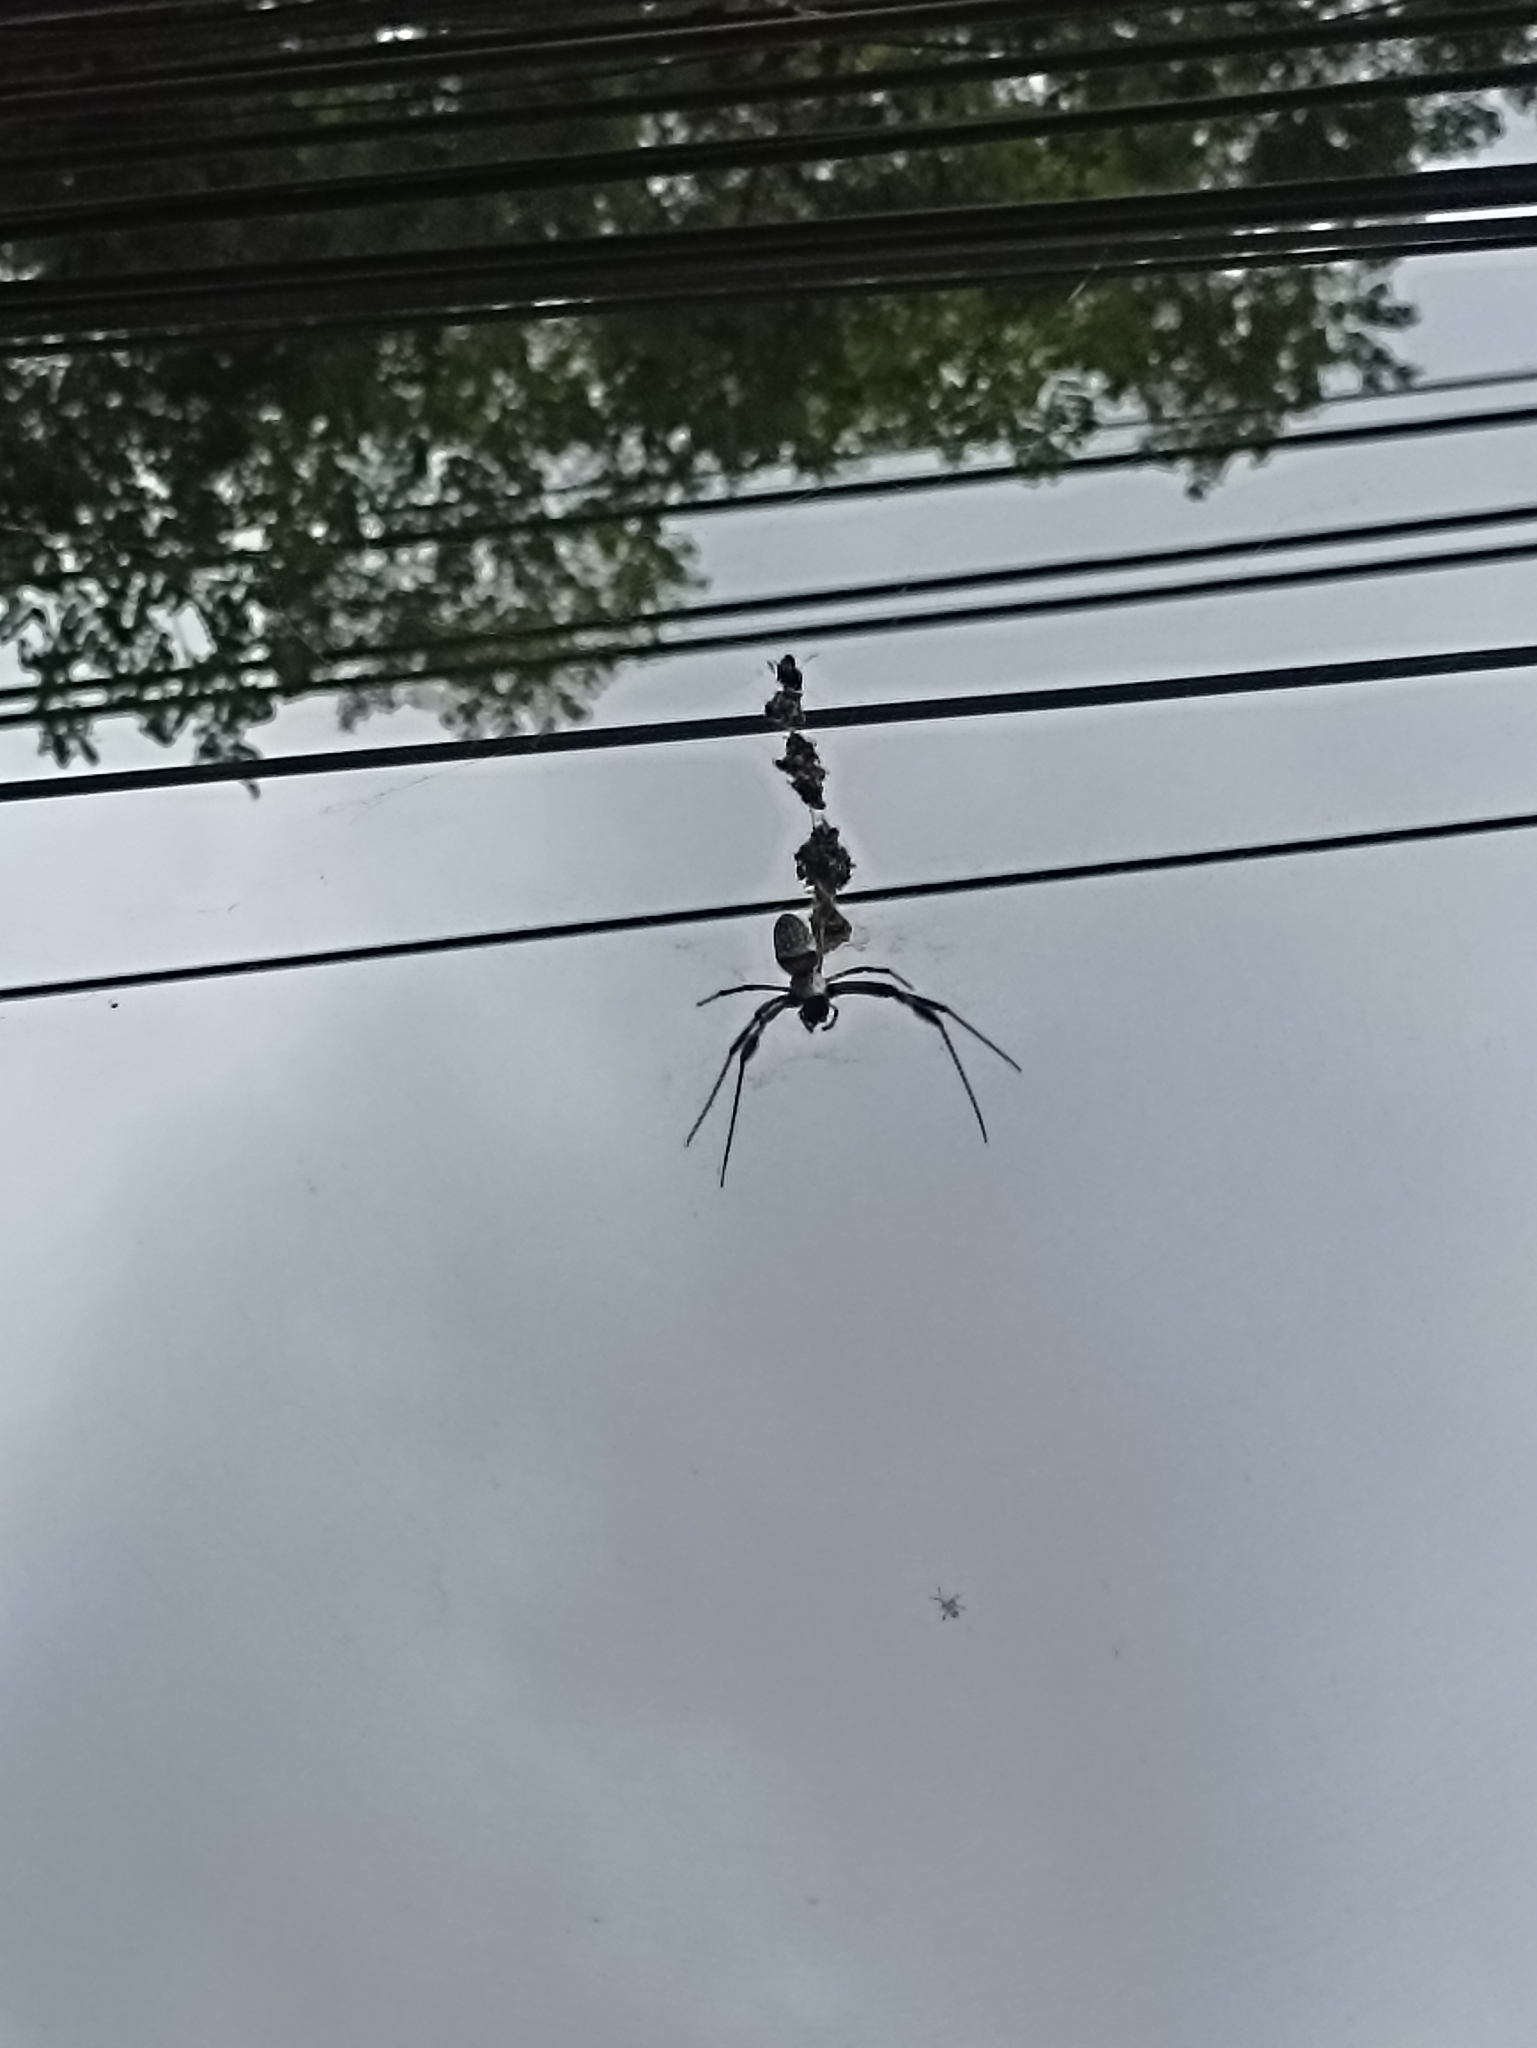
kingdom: Animalia
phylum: Arthropoda
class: Arachnida
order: Araneae
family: Araneidae
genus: Trichonephila
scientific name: Trichonephila clavipes
